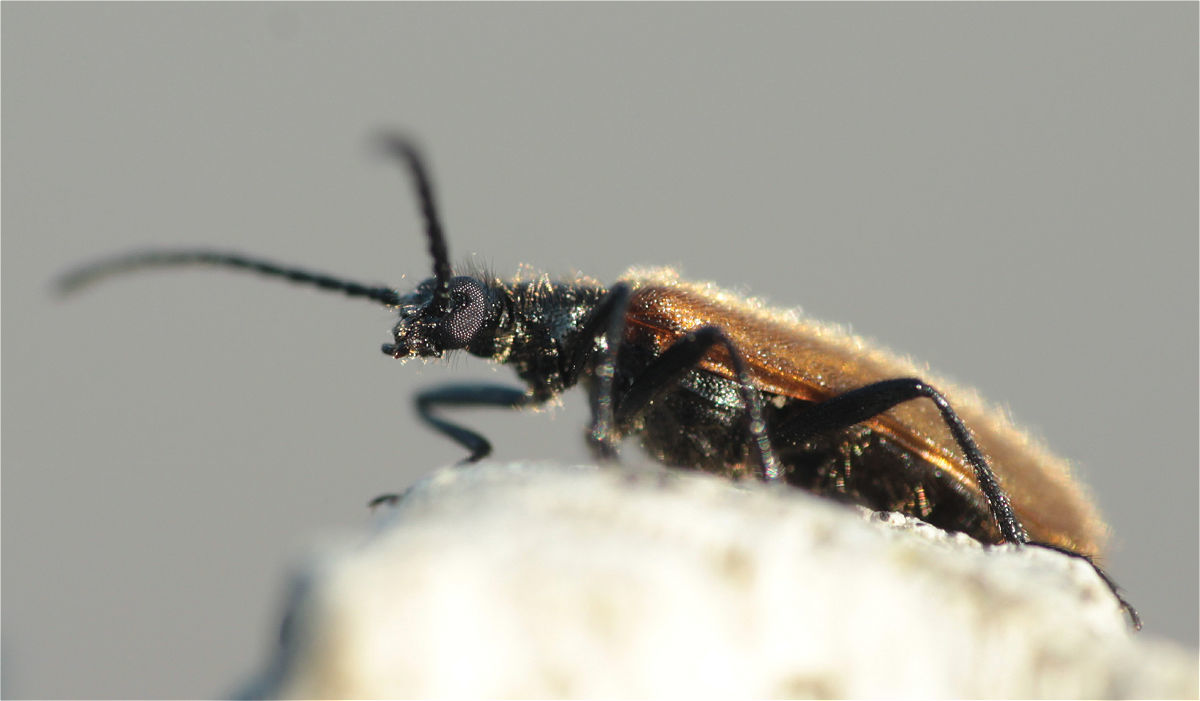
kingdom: Animalia
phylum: Arthropoda
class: Insecta
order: Coleoptera
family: Tenebrionidae
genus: Lagria
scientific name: Lagria hirta
